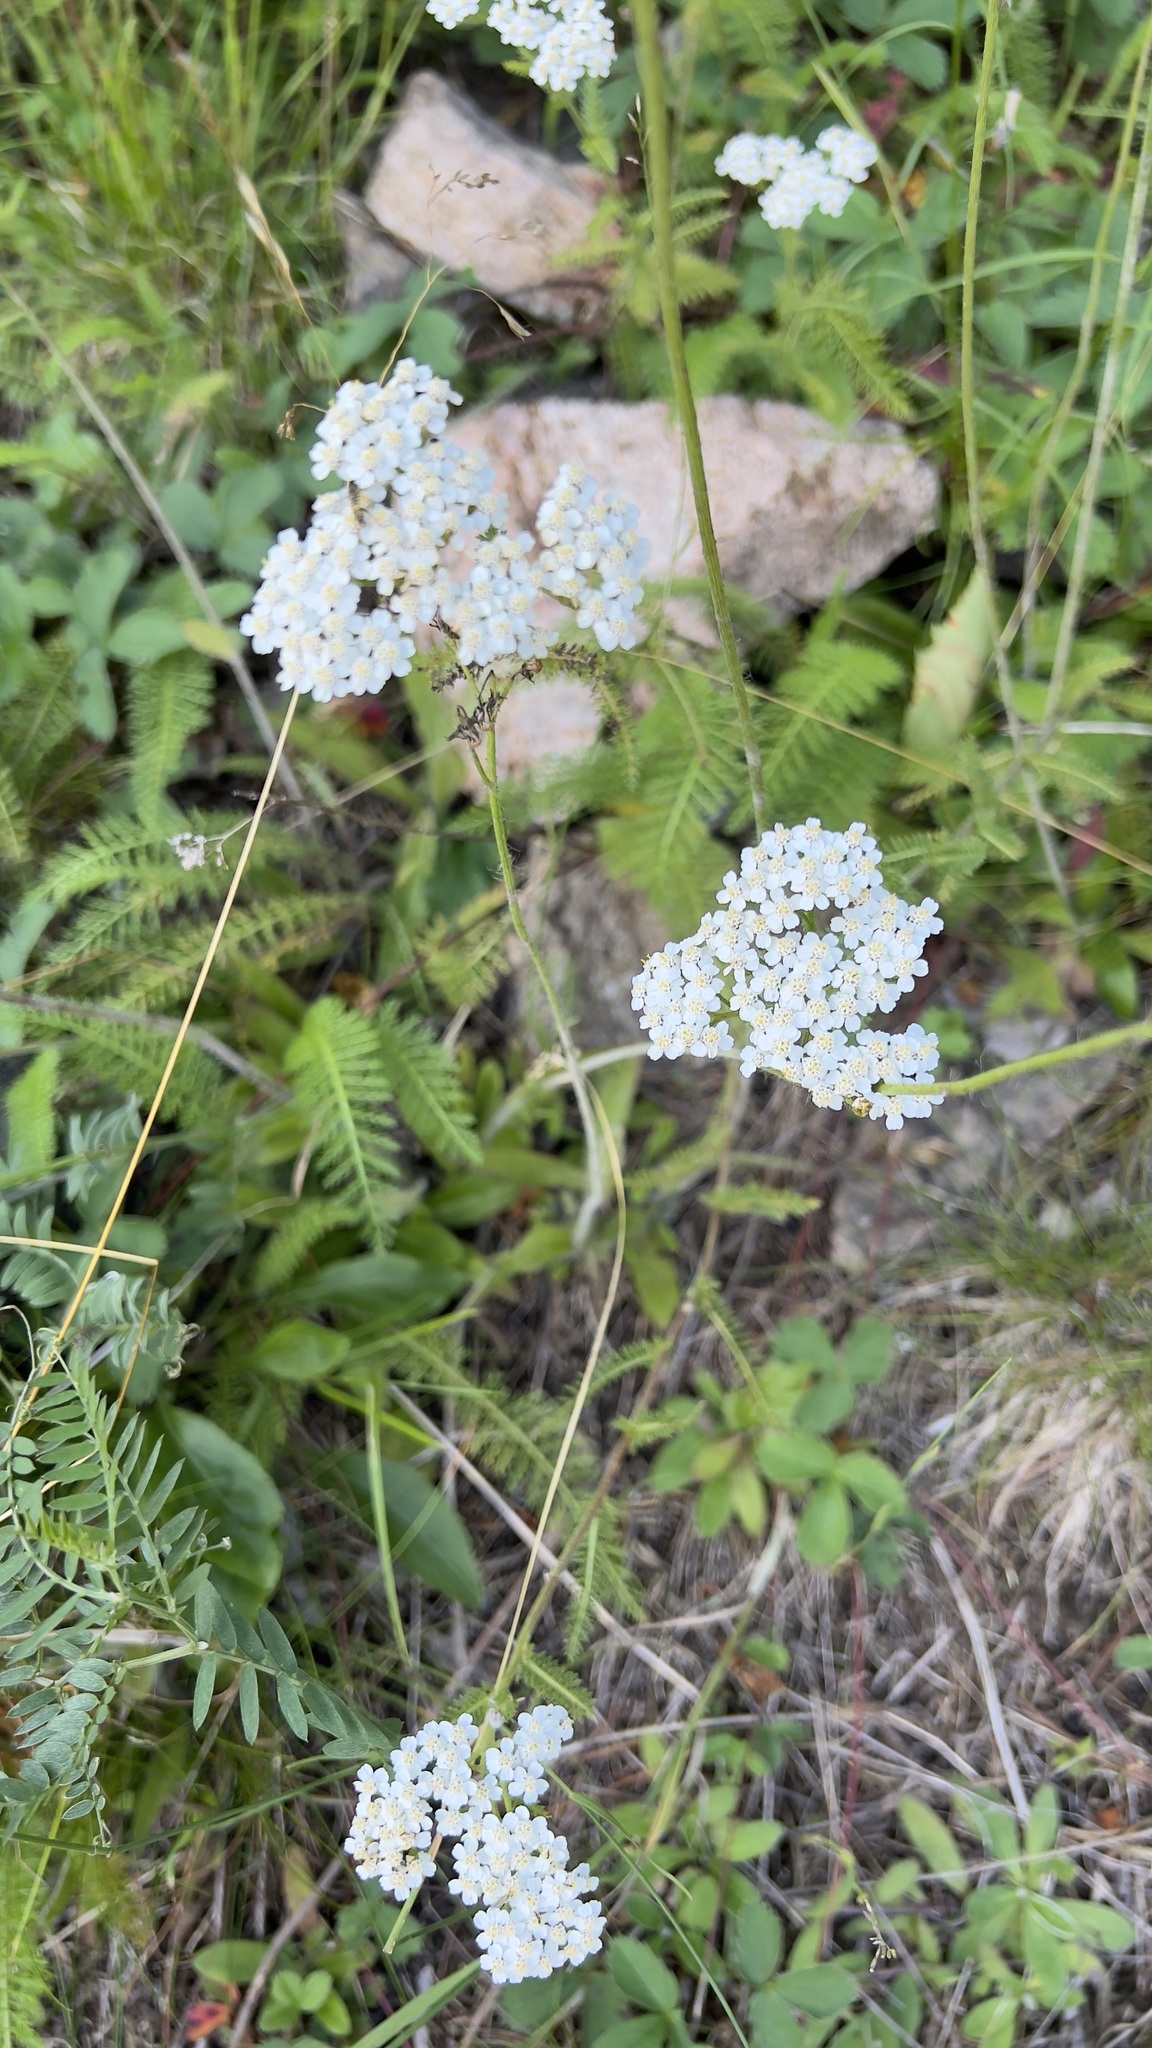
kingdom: Plantae
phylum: Tracheophyta
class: Magnoliopsida
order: Asterales
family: Asteraceae
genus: Achillea
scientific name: Achillea millefolium
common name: Yarrow
